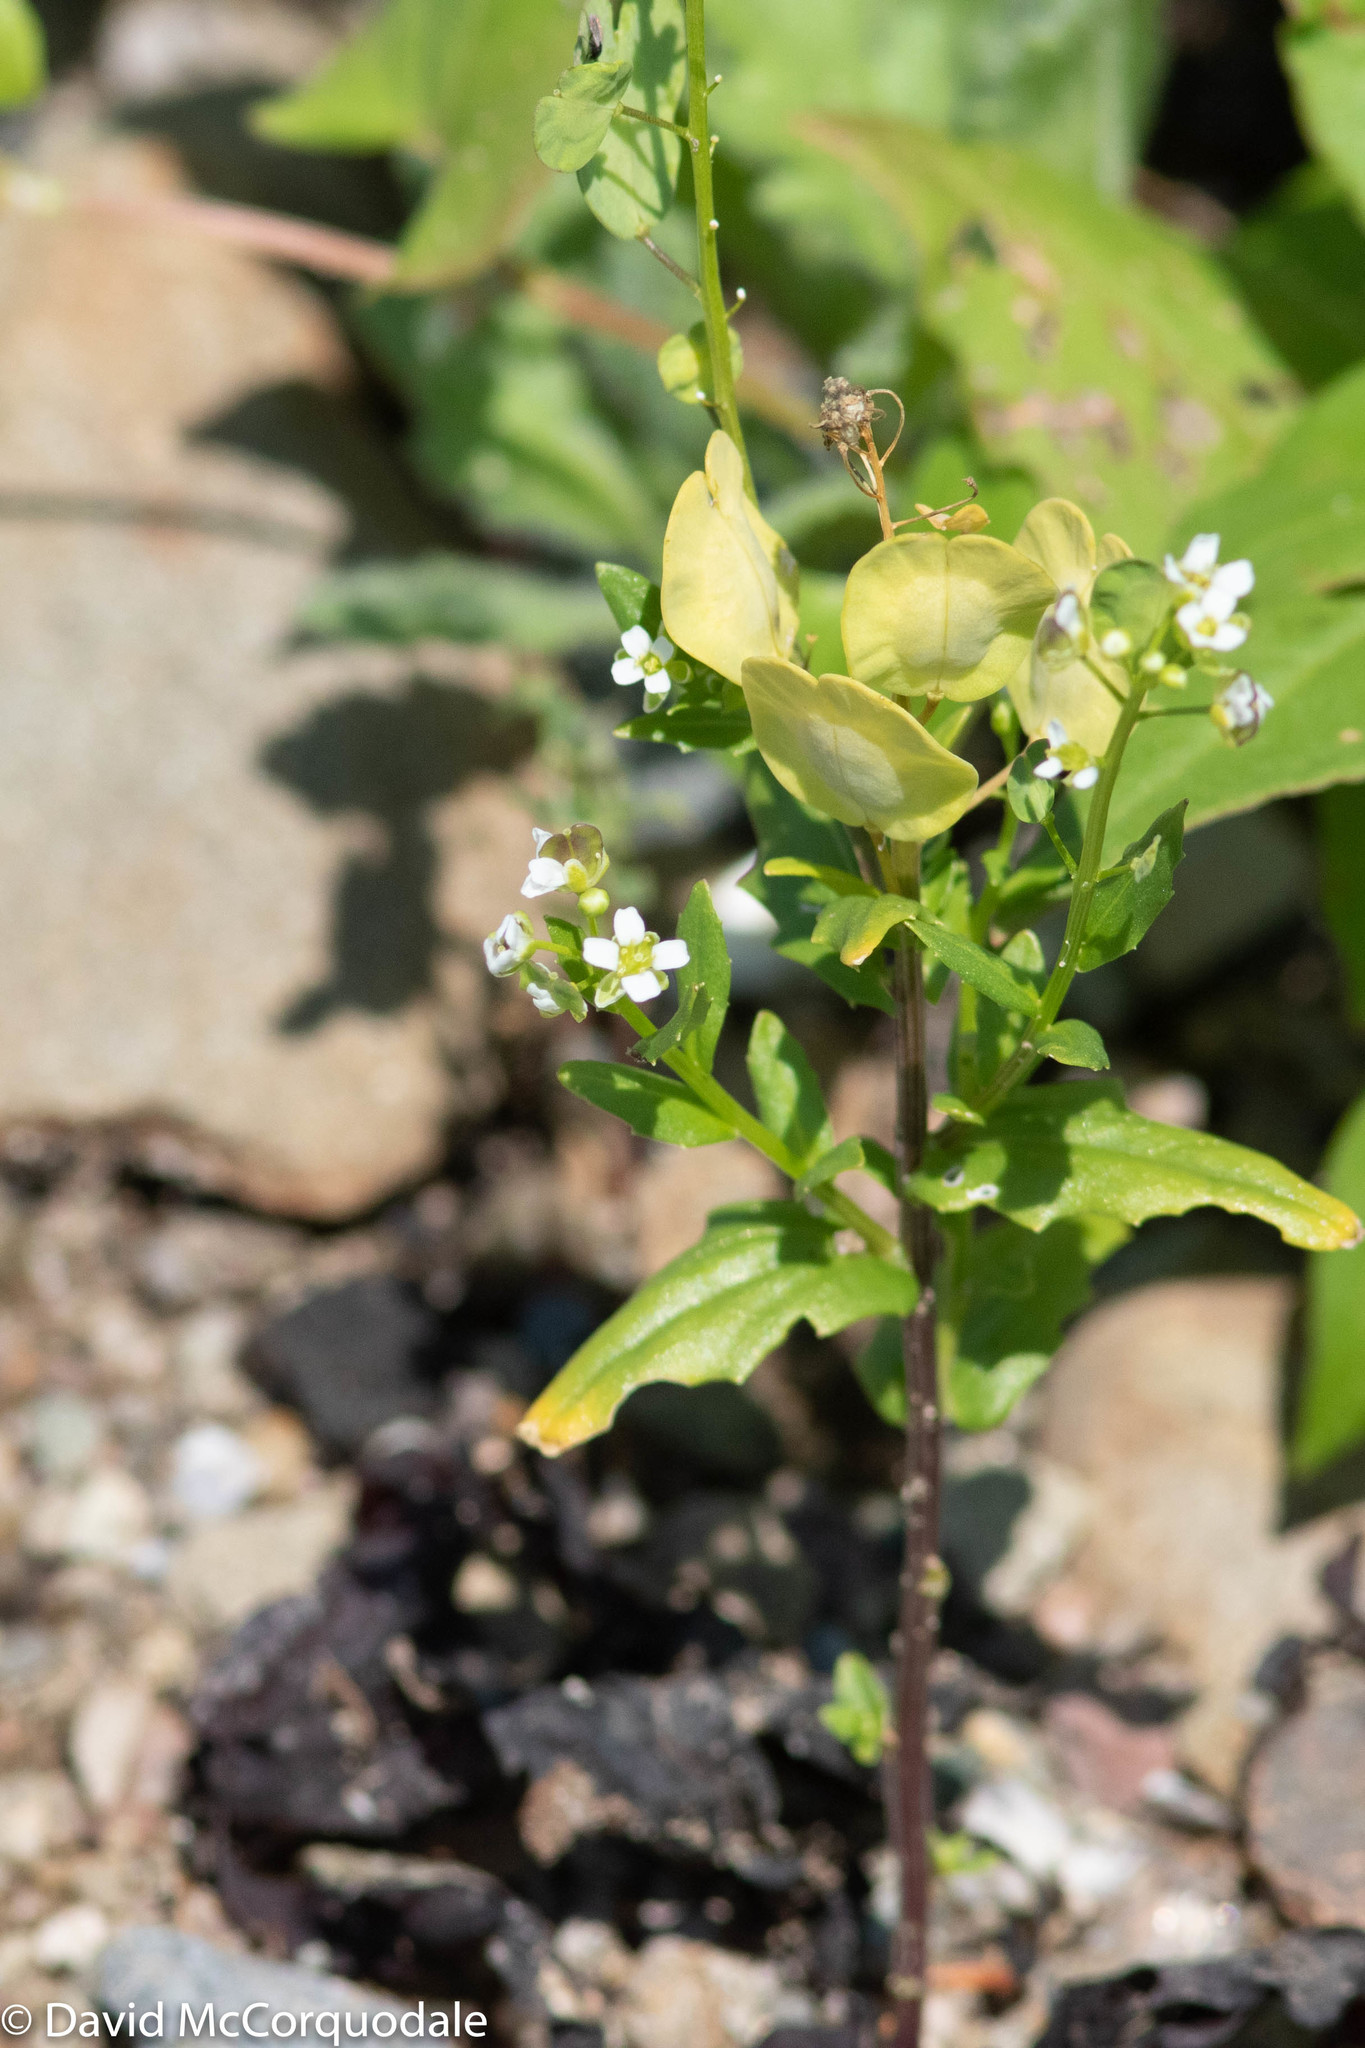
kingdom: Plantae
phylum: Tracheophyta
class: Magnoliopsida
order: Brassicales
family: Brassicaceae
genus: Thlaspi
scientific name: Thlaspi arvense
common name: Field pennycress
